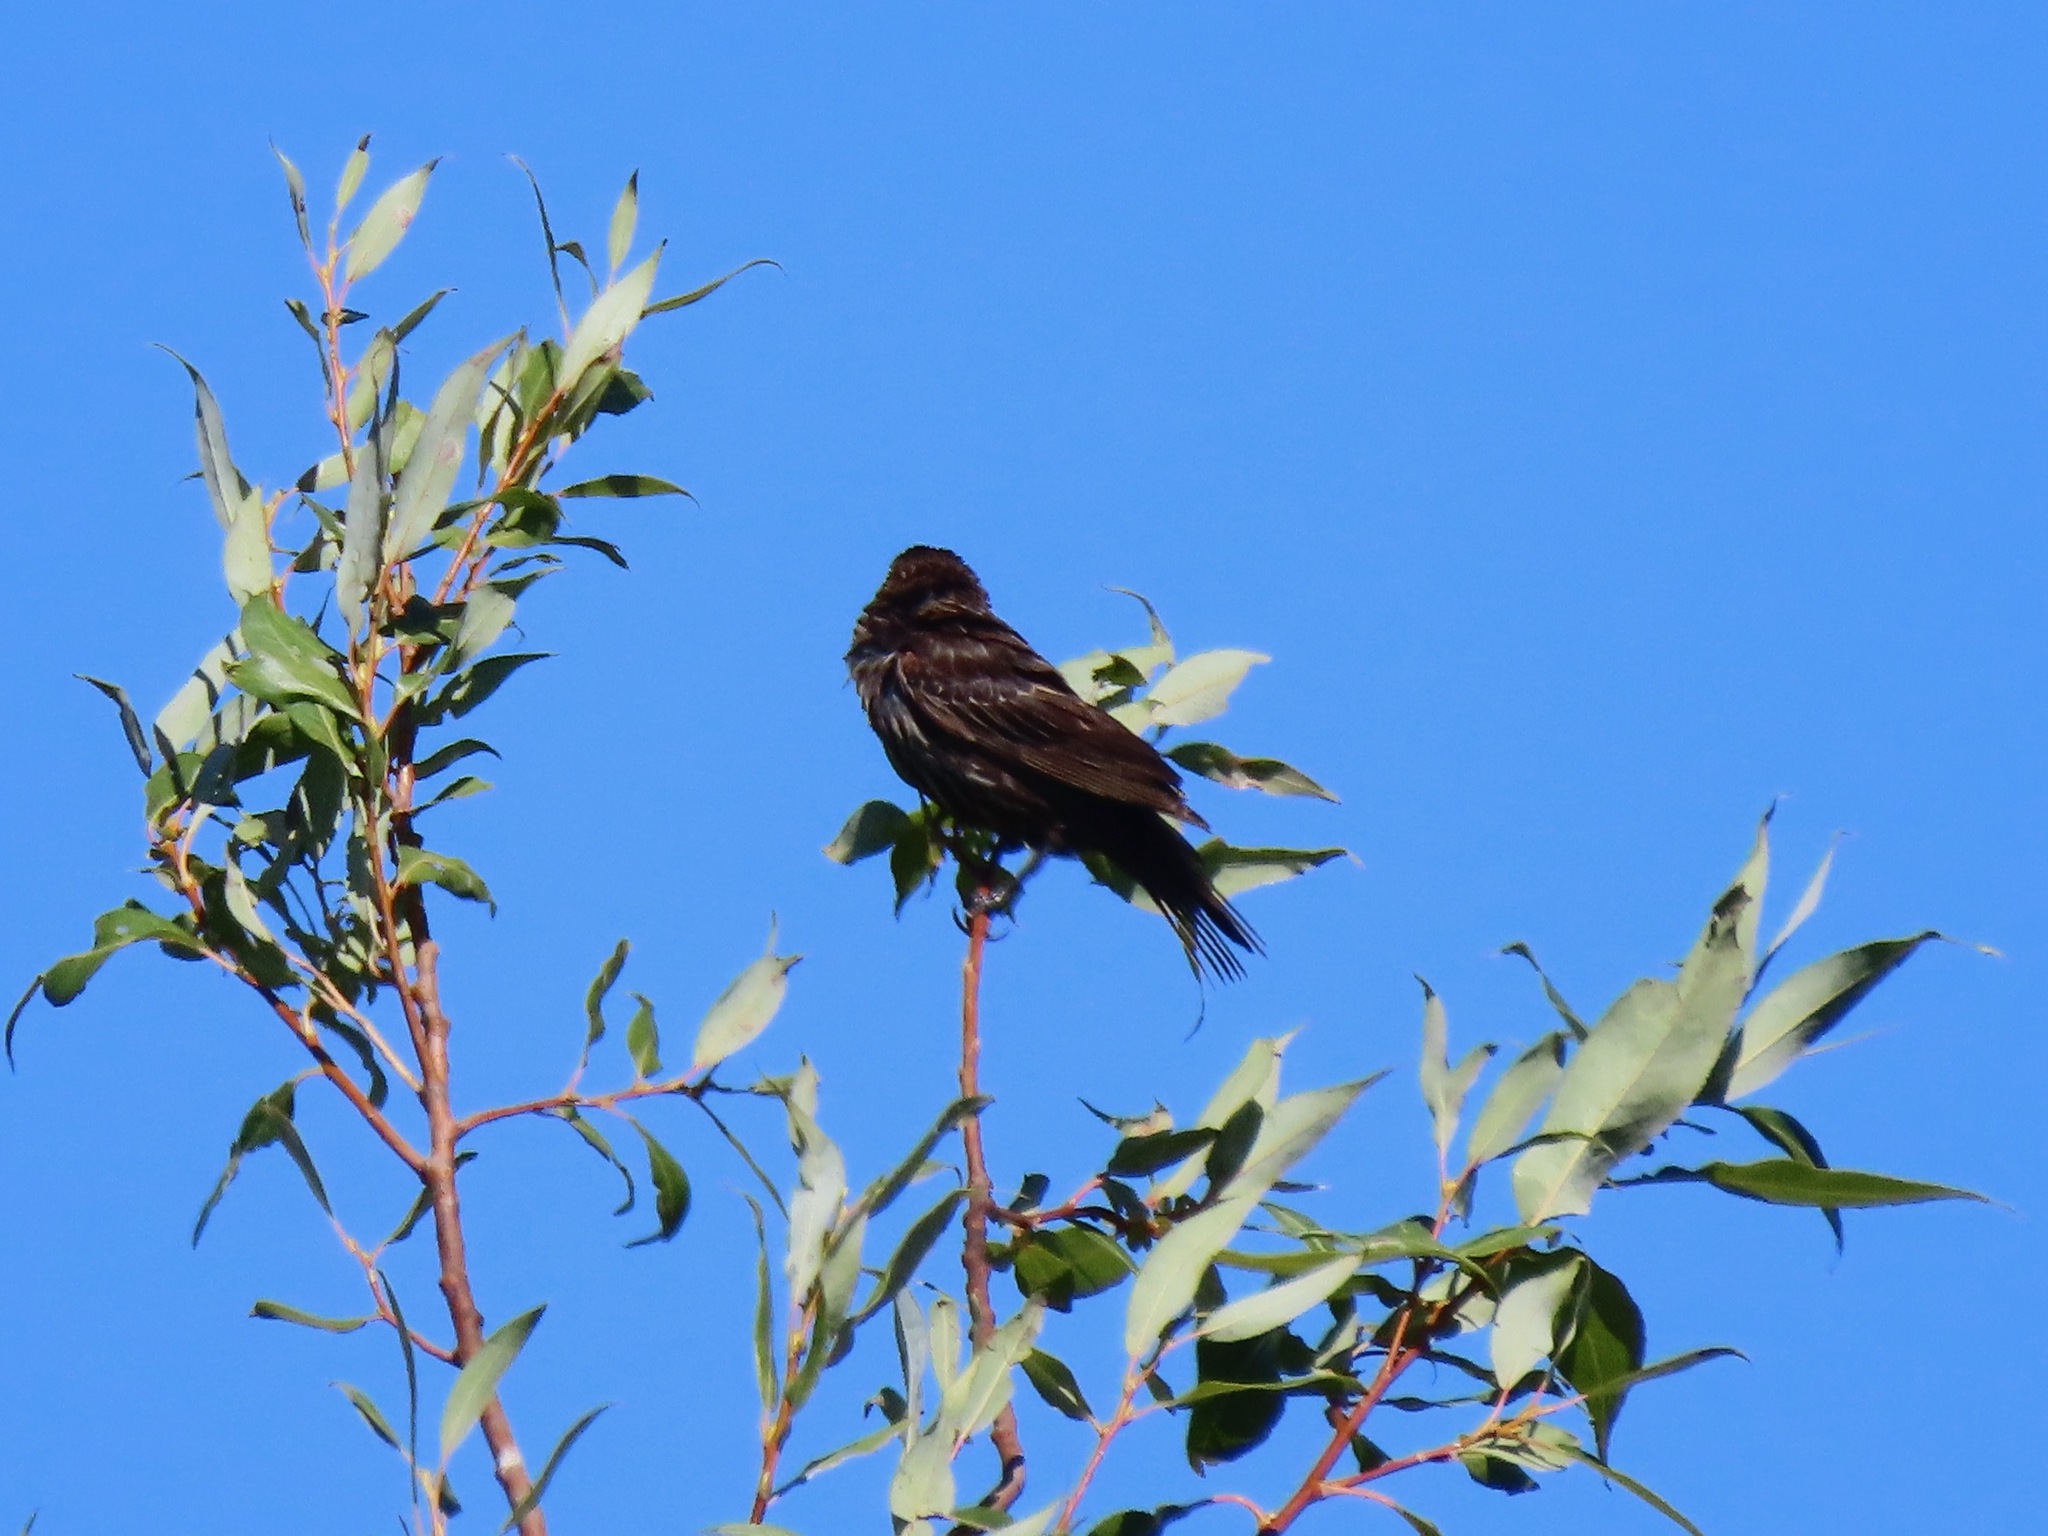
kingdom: Animalia
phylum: Chordata
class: Aves
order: Passeriformes
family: Icteridae
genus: Agelaius
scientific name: Agelaius phoeniceus
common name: Red-winged blackbird
